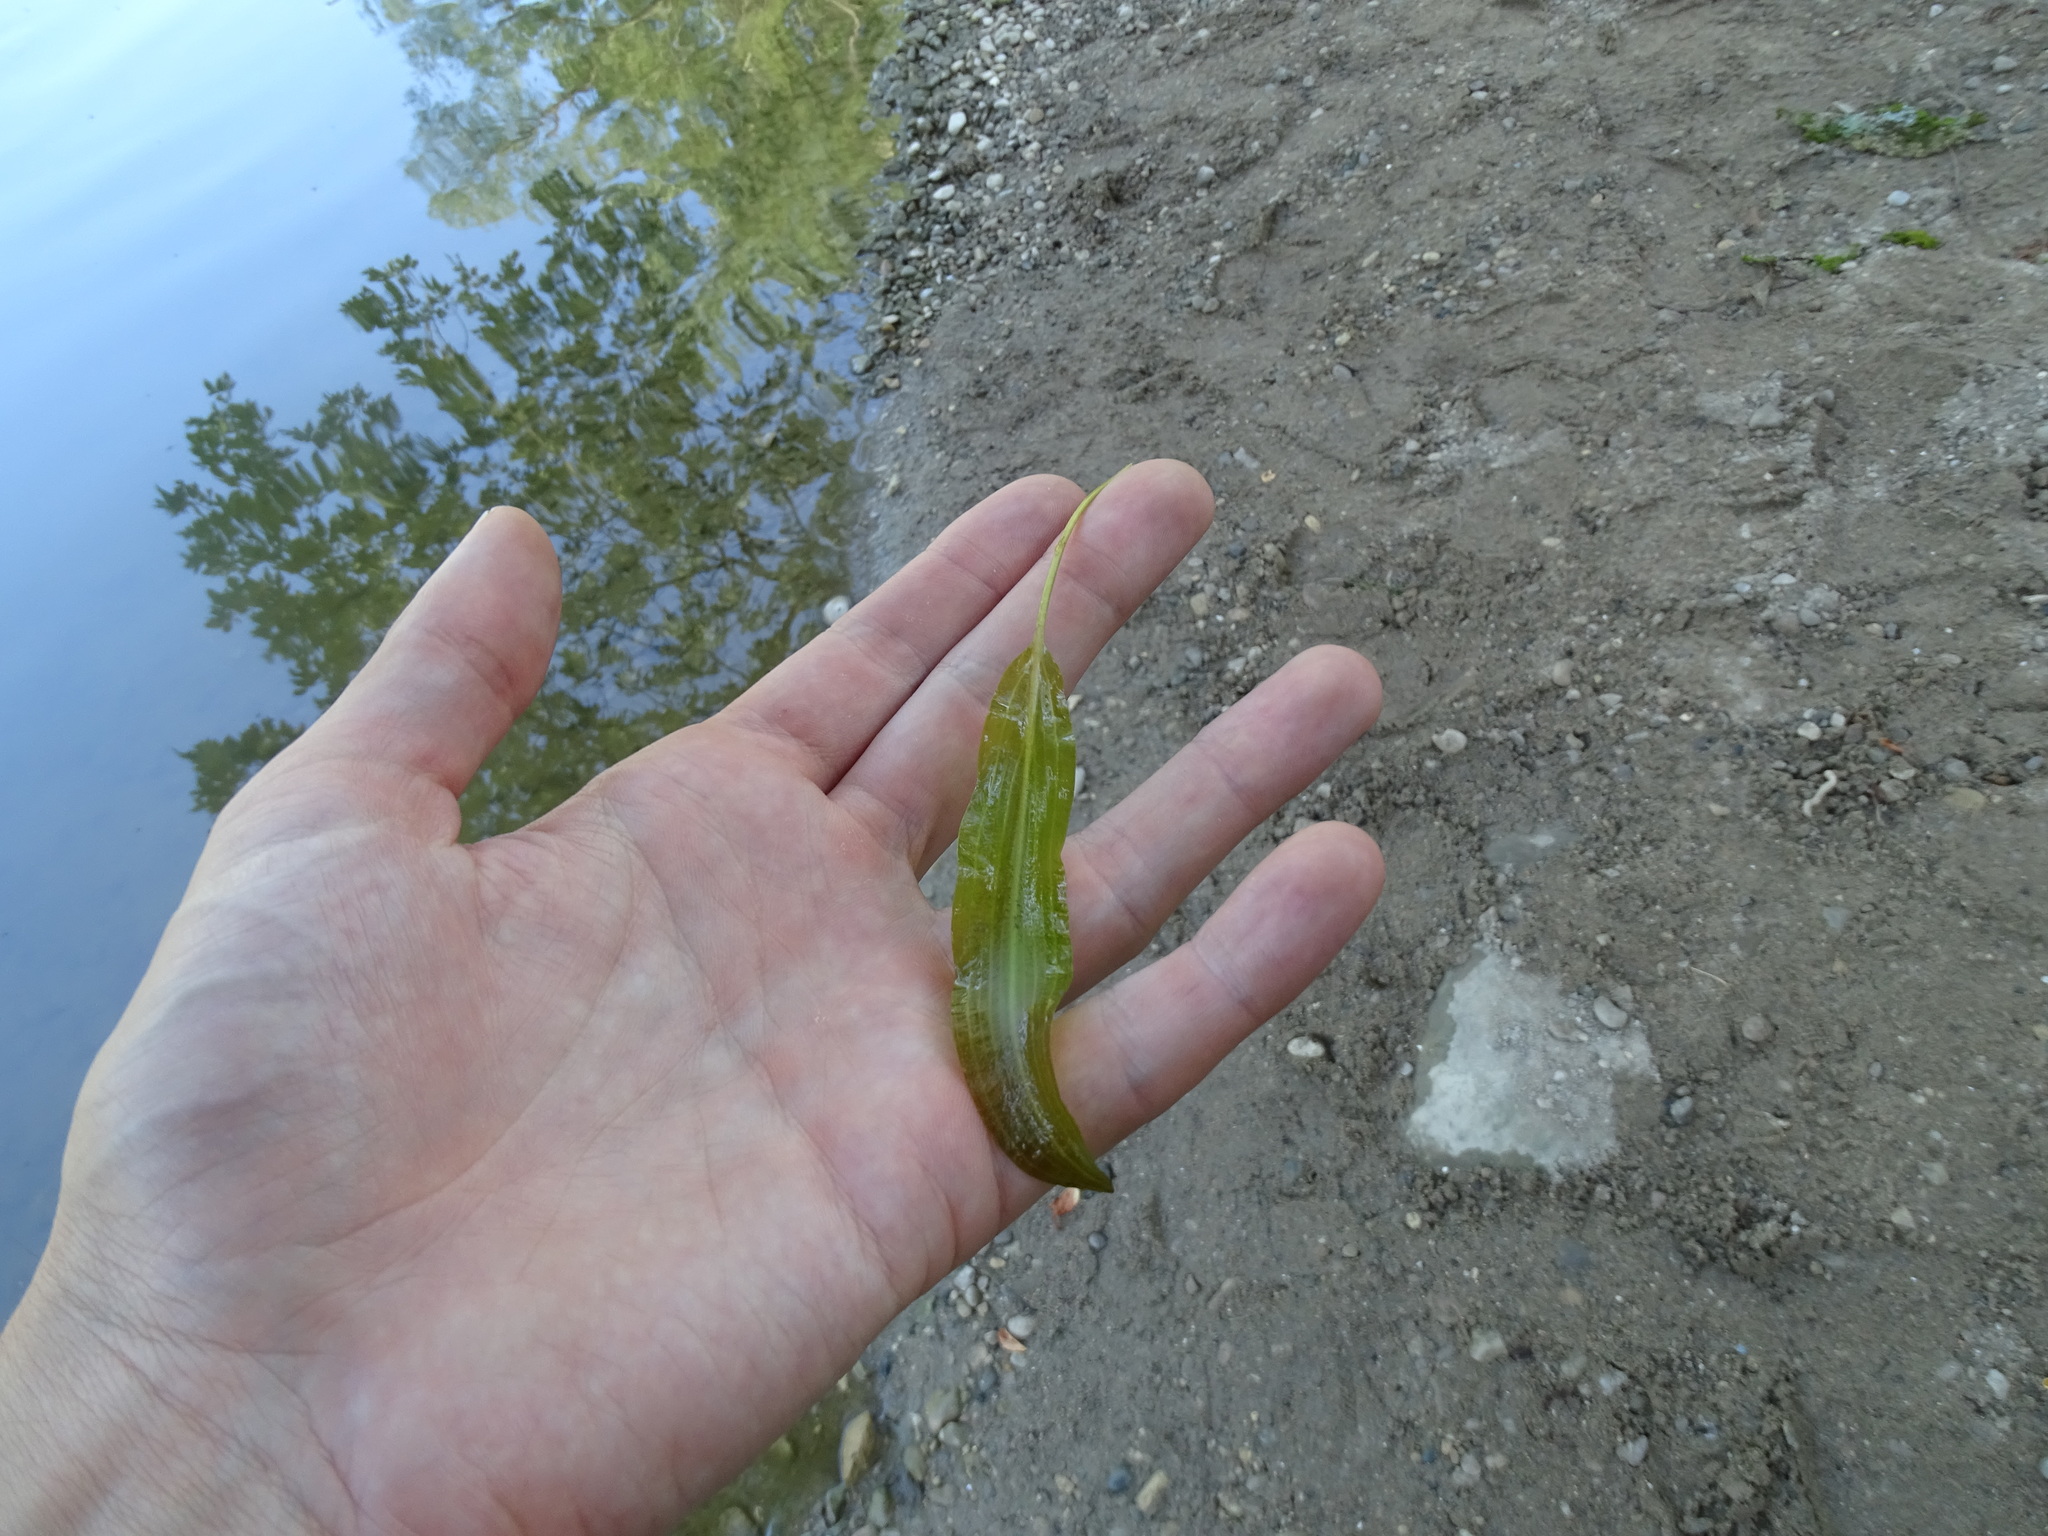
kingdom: Plantae
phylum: Tracheophyta
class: Liliopsida
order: Alismatales
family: Potamogetonaceae
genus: Potamogeton
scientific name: Potamogeton nodosus
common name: Loddon pondweed
